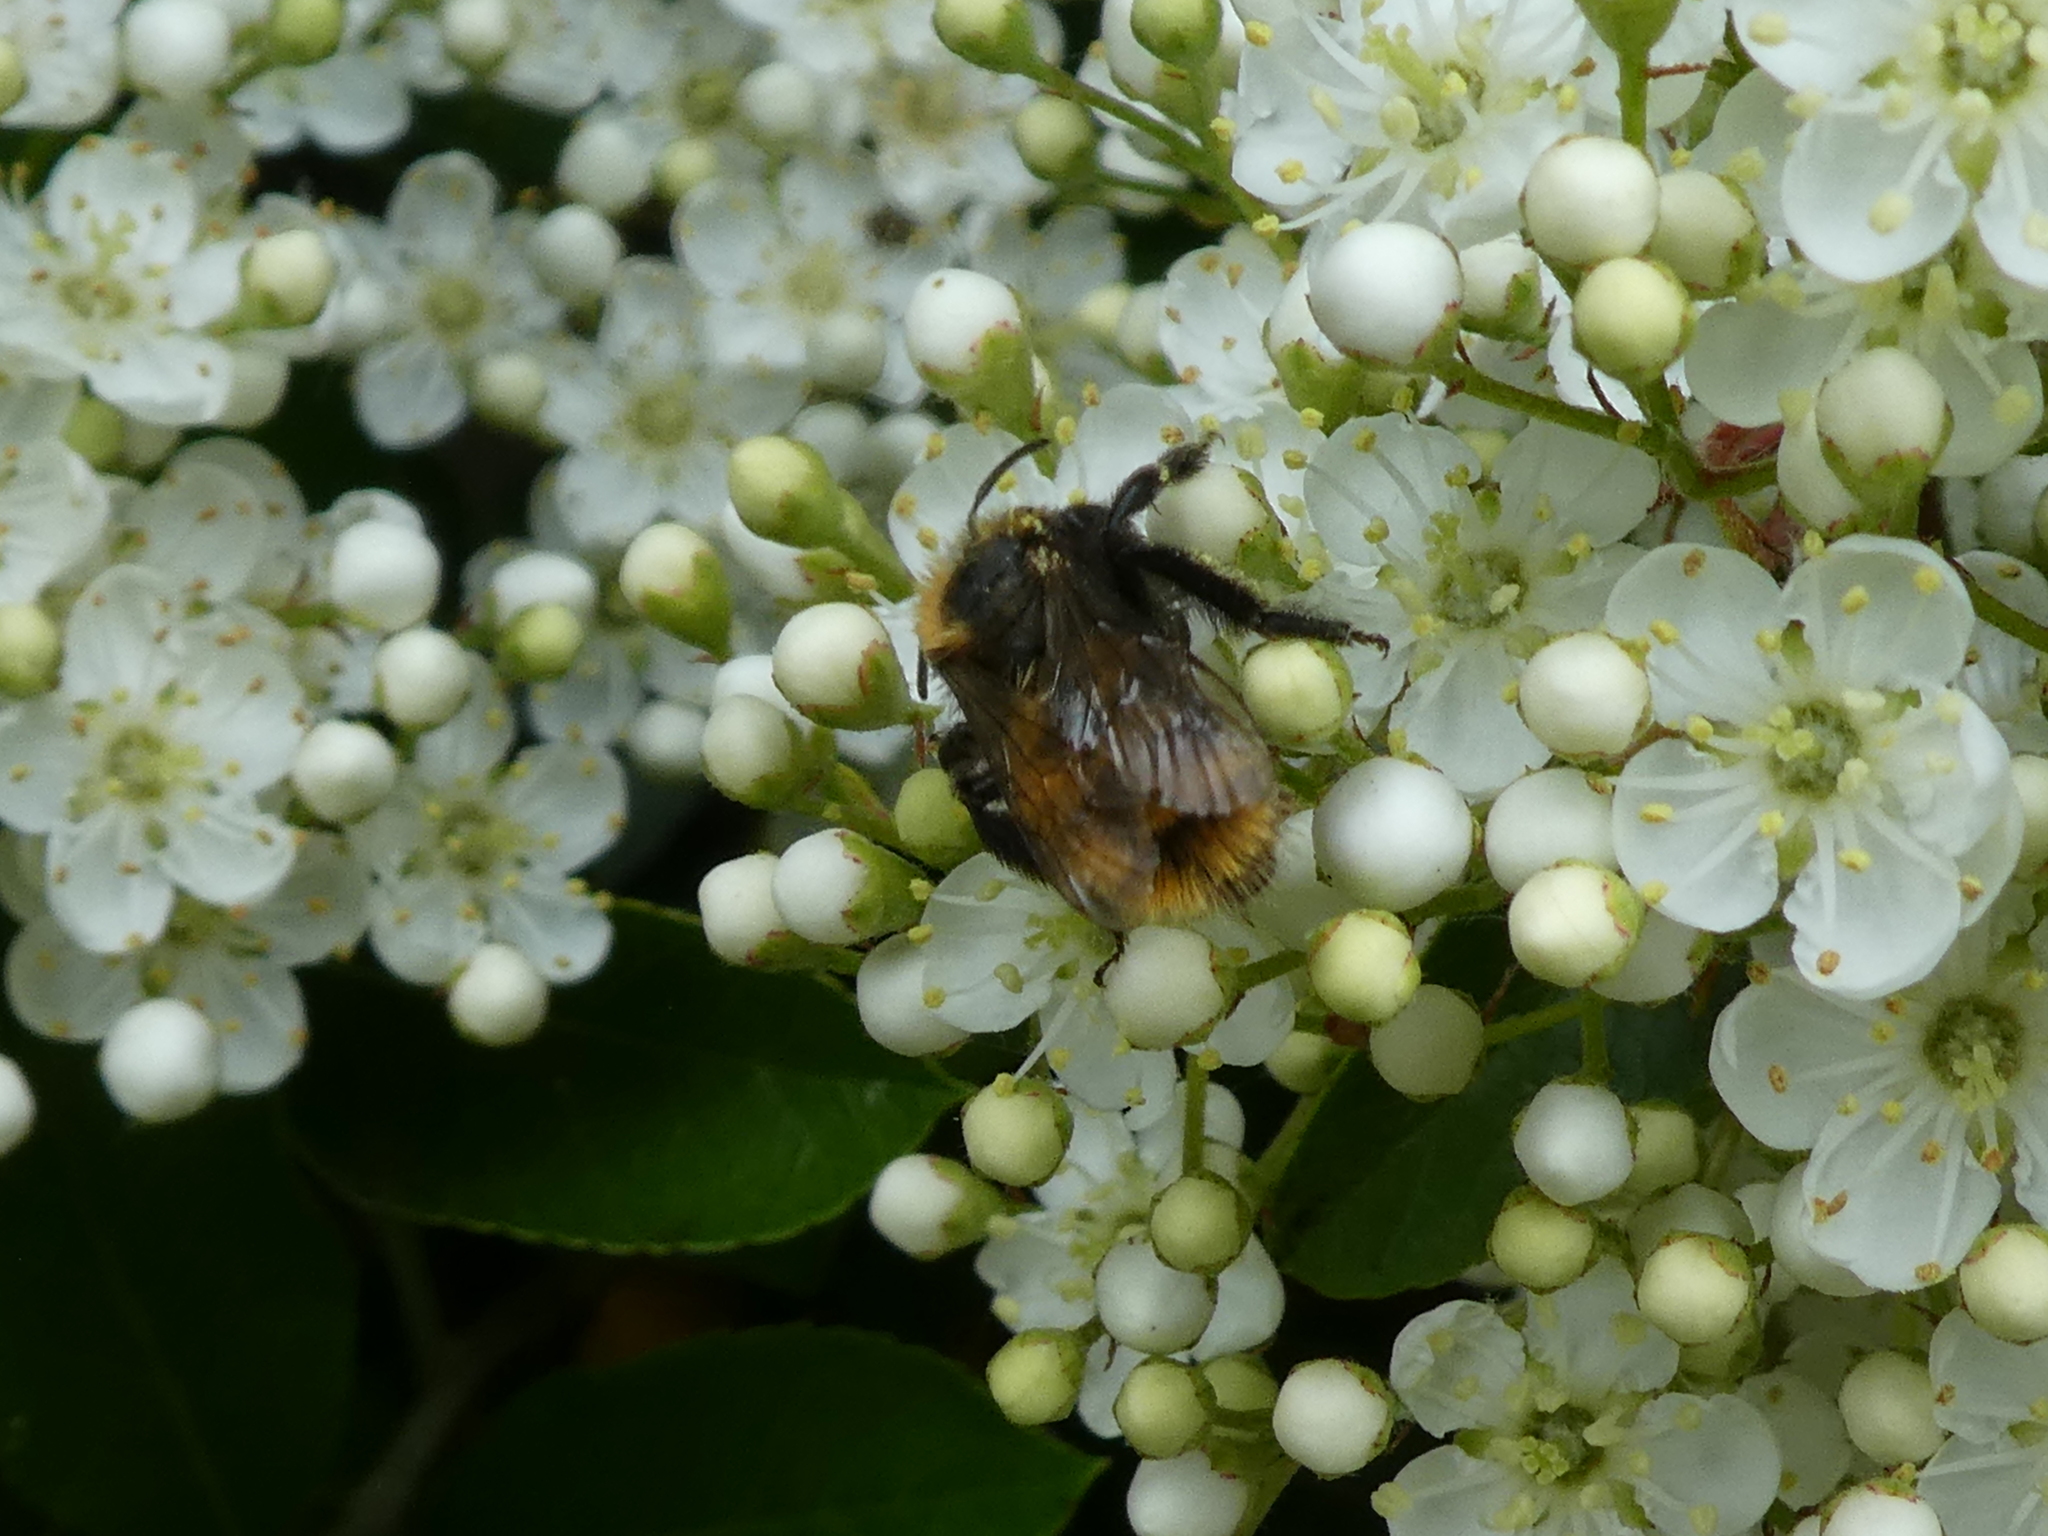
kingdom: Animalia
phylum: Arthropoda
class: Insecta
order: Hymenoptera
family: Andrenidae
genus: Andrena
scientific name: Andrena fulva
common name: Tawny mining bee
